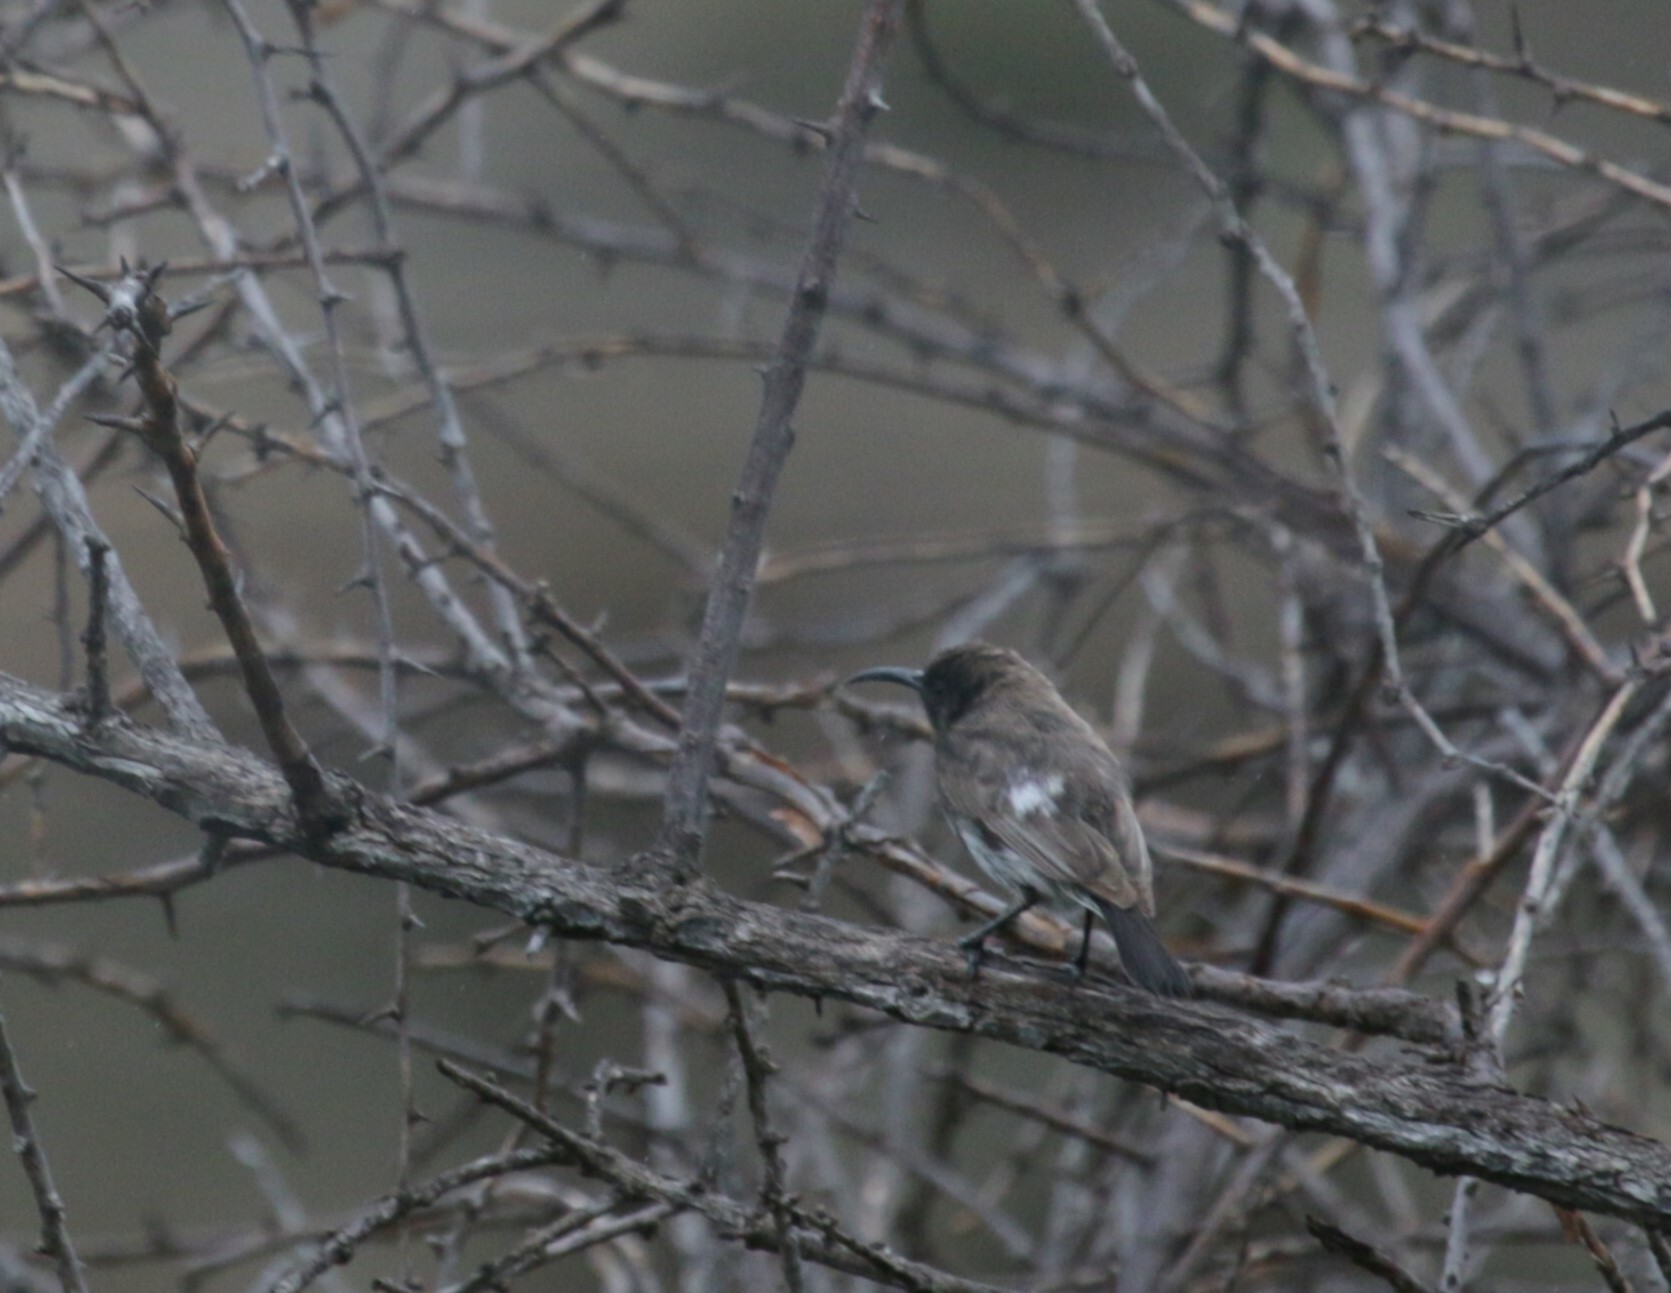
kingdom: Animalia
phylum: Chordata
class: Aves
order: Passeriformes
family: Nectariniidae
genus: Cinnyris
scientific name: Cinnyris fuscus
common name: Dusky sunbird
